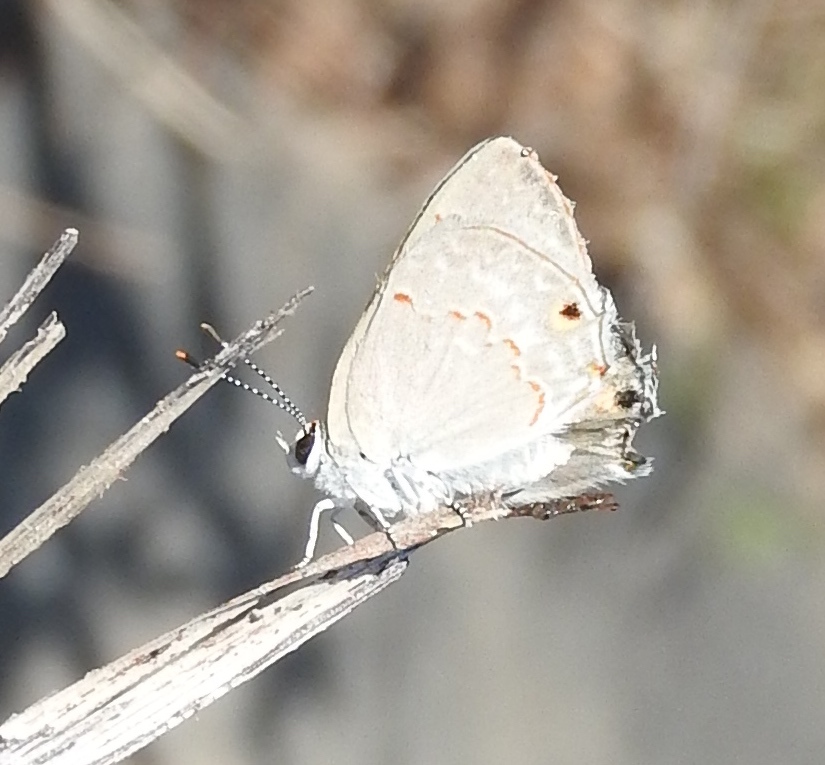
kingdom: Animalia
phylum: Arthropoda
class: Insecta
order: Lepidoptera
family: Lycaenidae
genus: Thecla
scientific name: Thecla rufofusca
